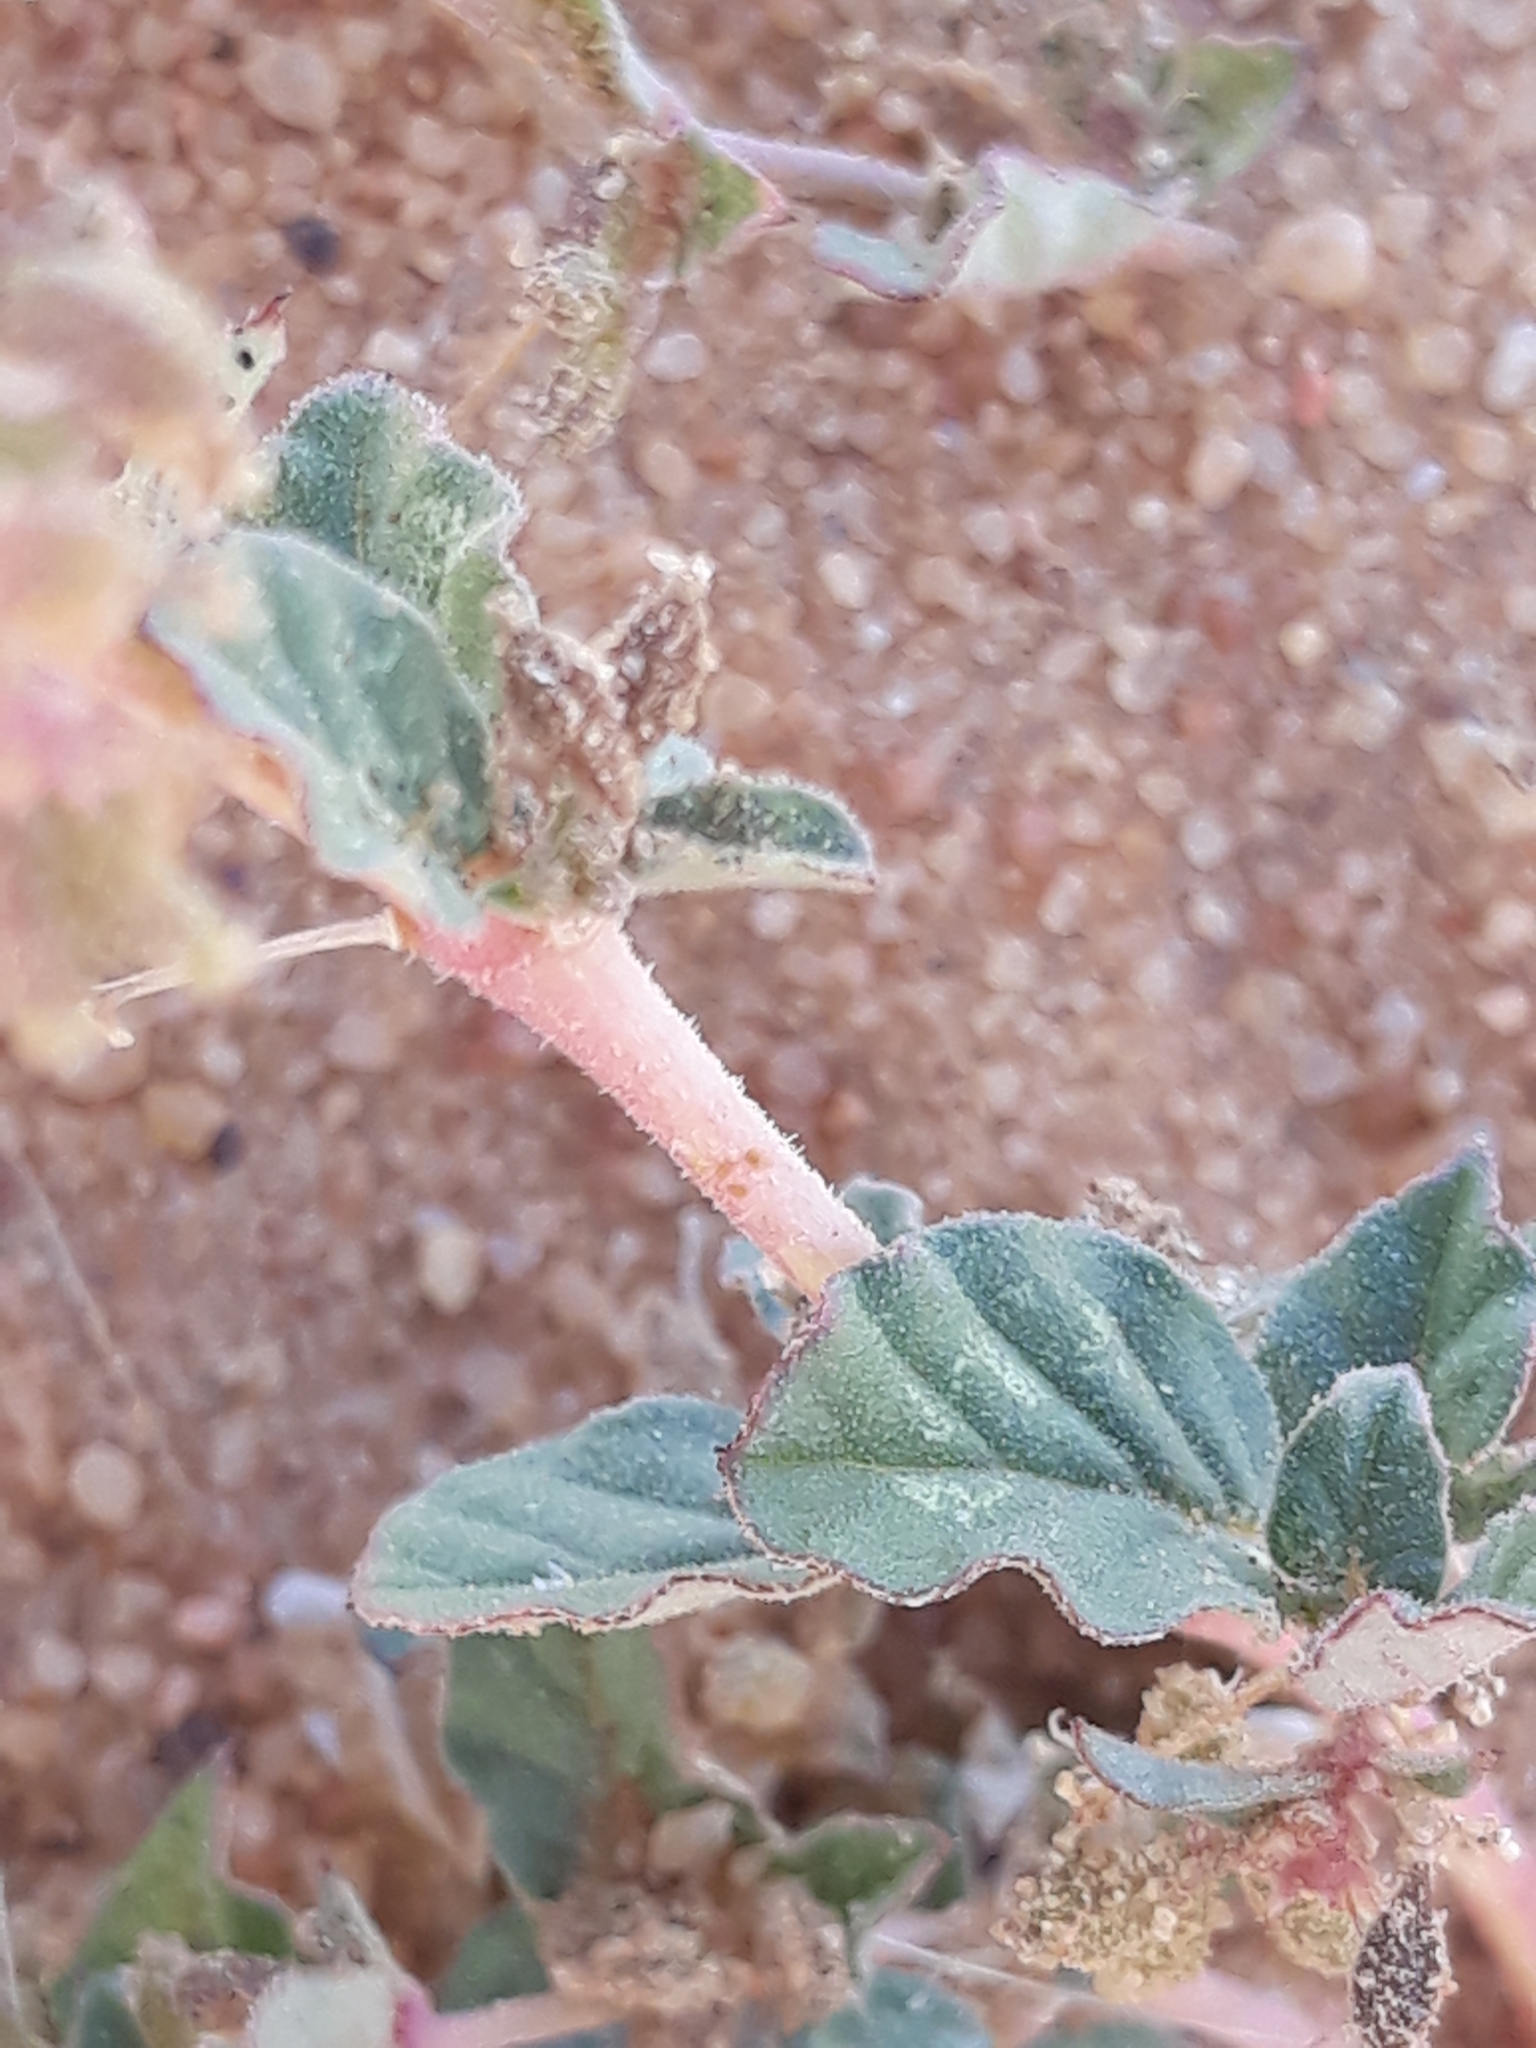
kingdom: Plantae
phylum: Tracheophyta
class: Magnoliopsida
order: Gentianales
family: Apocynaceae
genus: Pergularia
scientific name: Pergularia tomentosa
